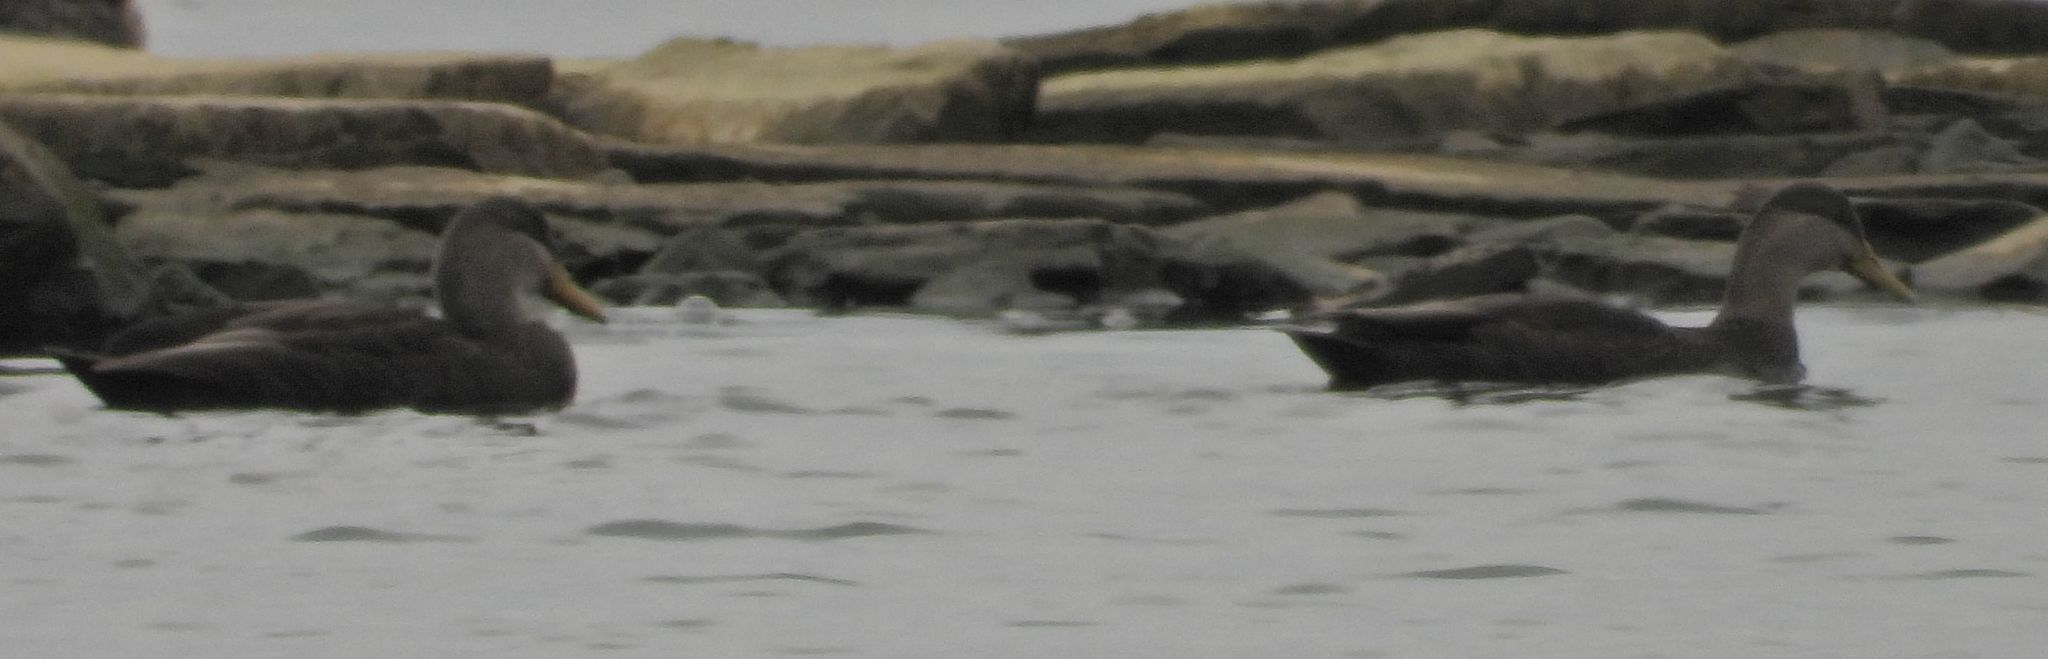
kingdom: Animalia
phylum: Chordata
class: Aves
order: Anseriformes
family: Anatidae
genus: Anas
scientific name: Anas rubripes
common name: American black duck
